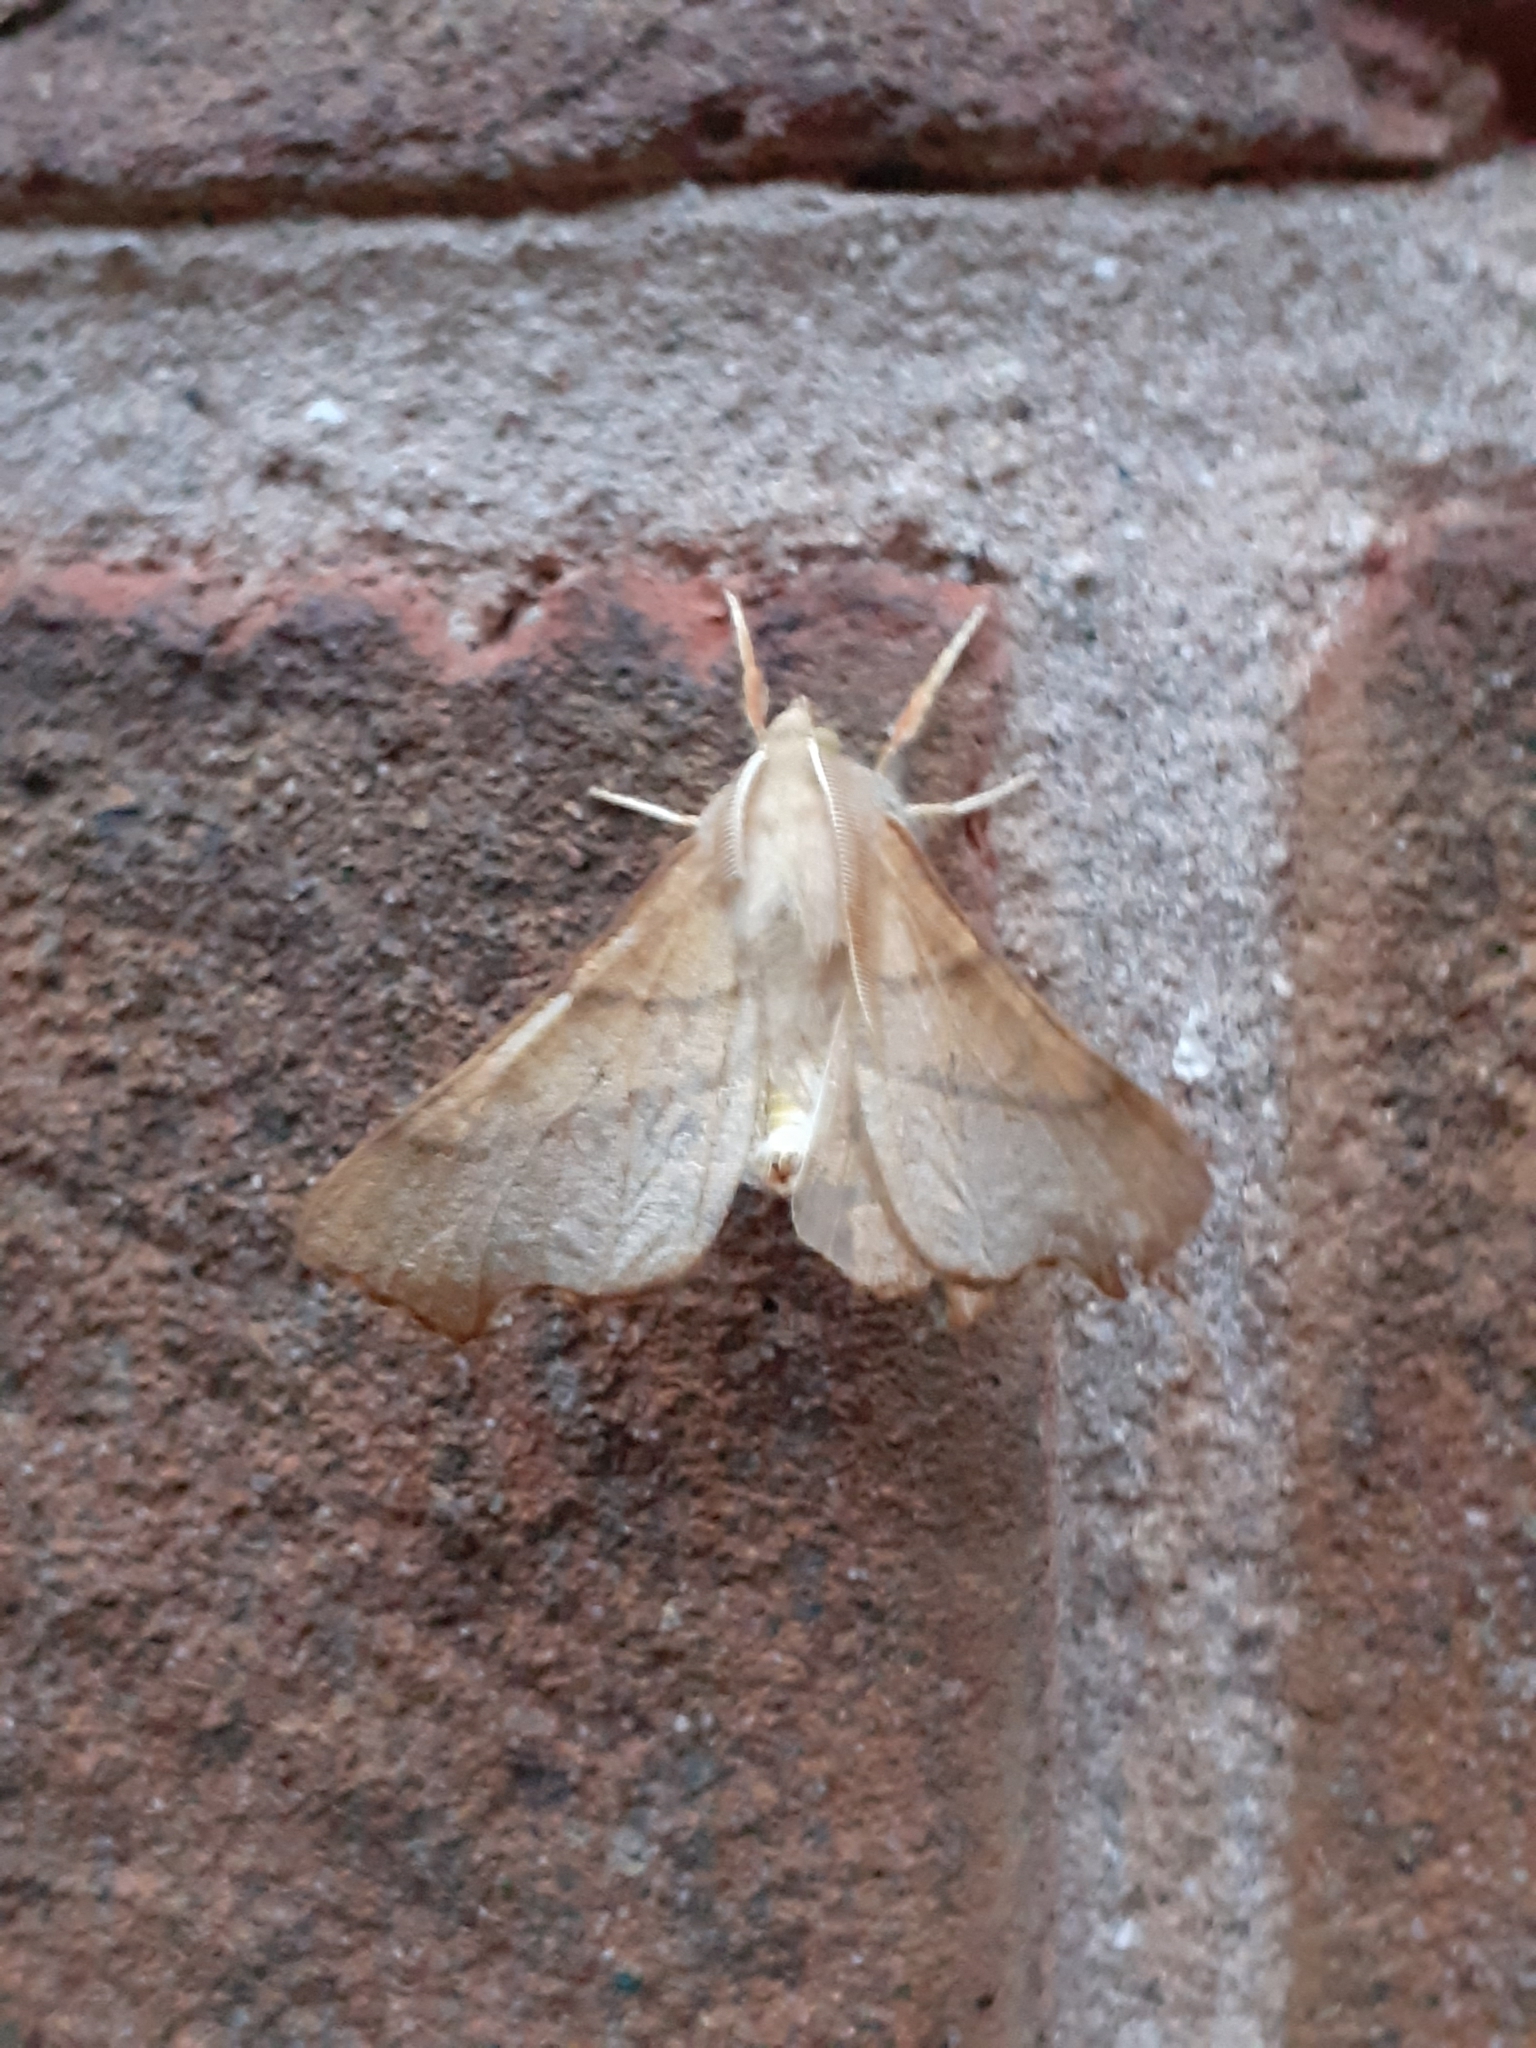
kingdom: Animalia
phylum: Arthropoda
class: Insecta
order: Lepidoptera
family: Geometridae
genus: Ennomos
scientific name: Ennomos fuscantaria
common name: Dusky thorn
